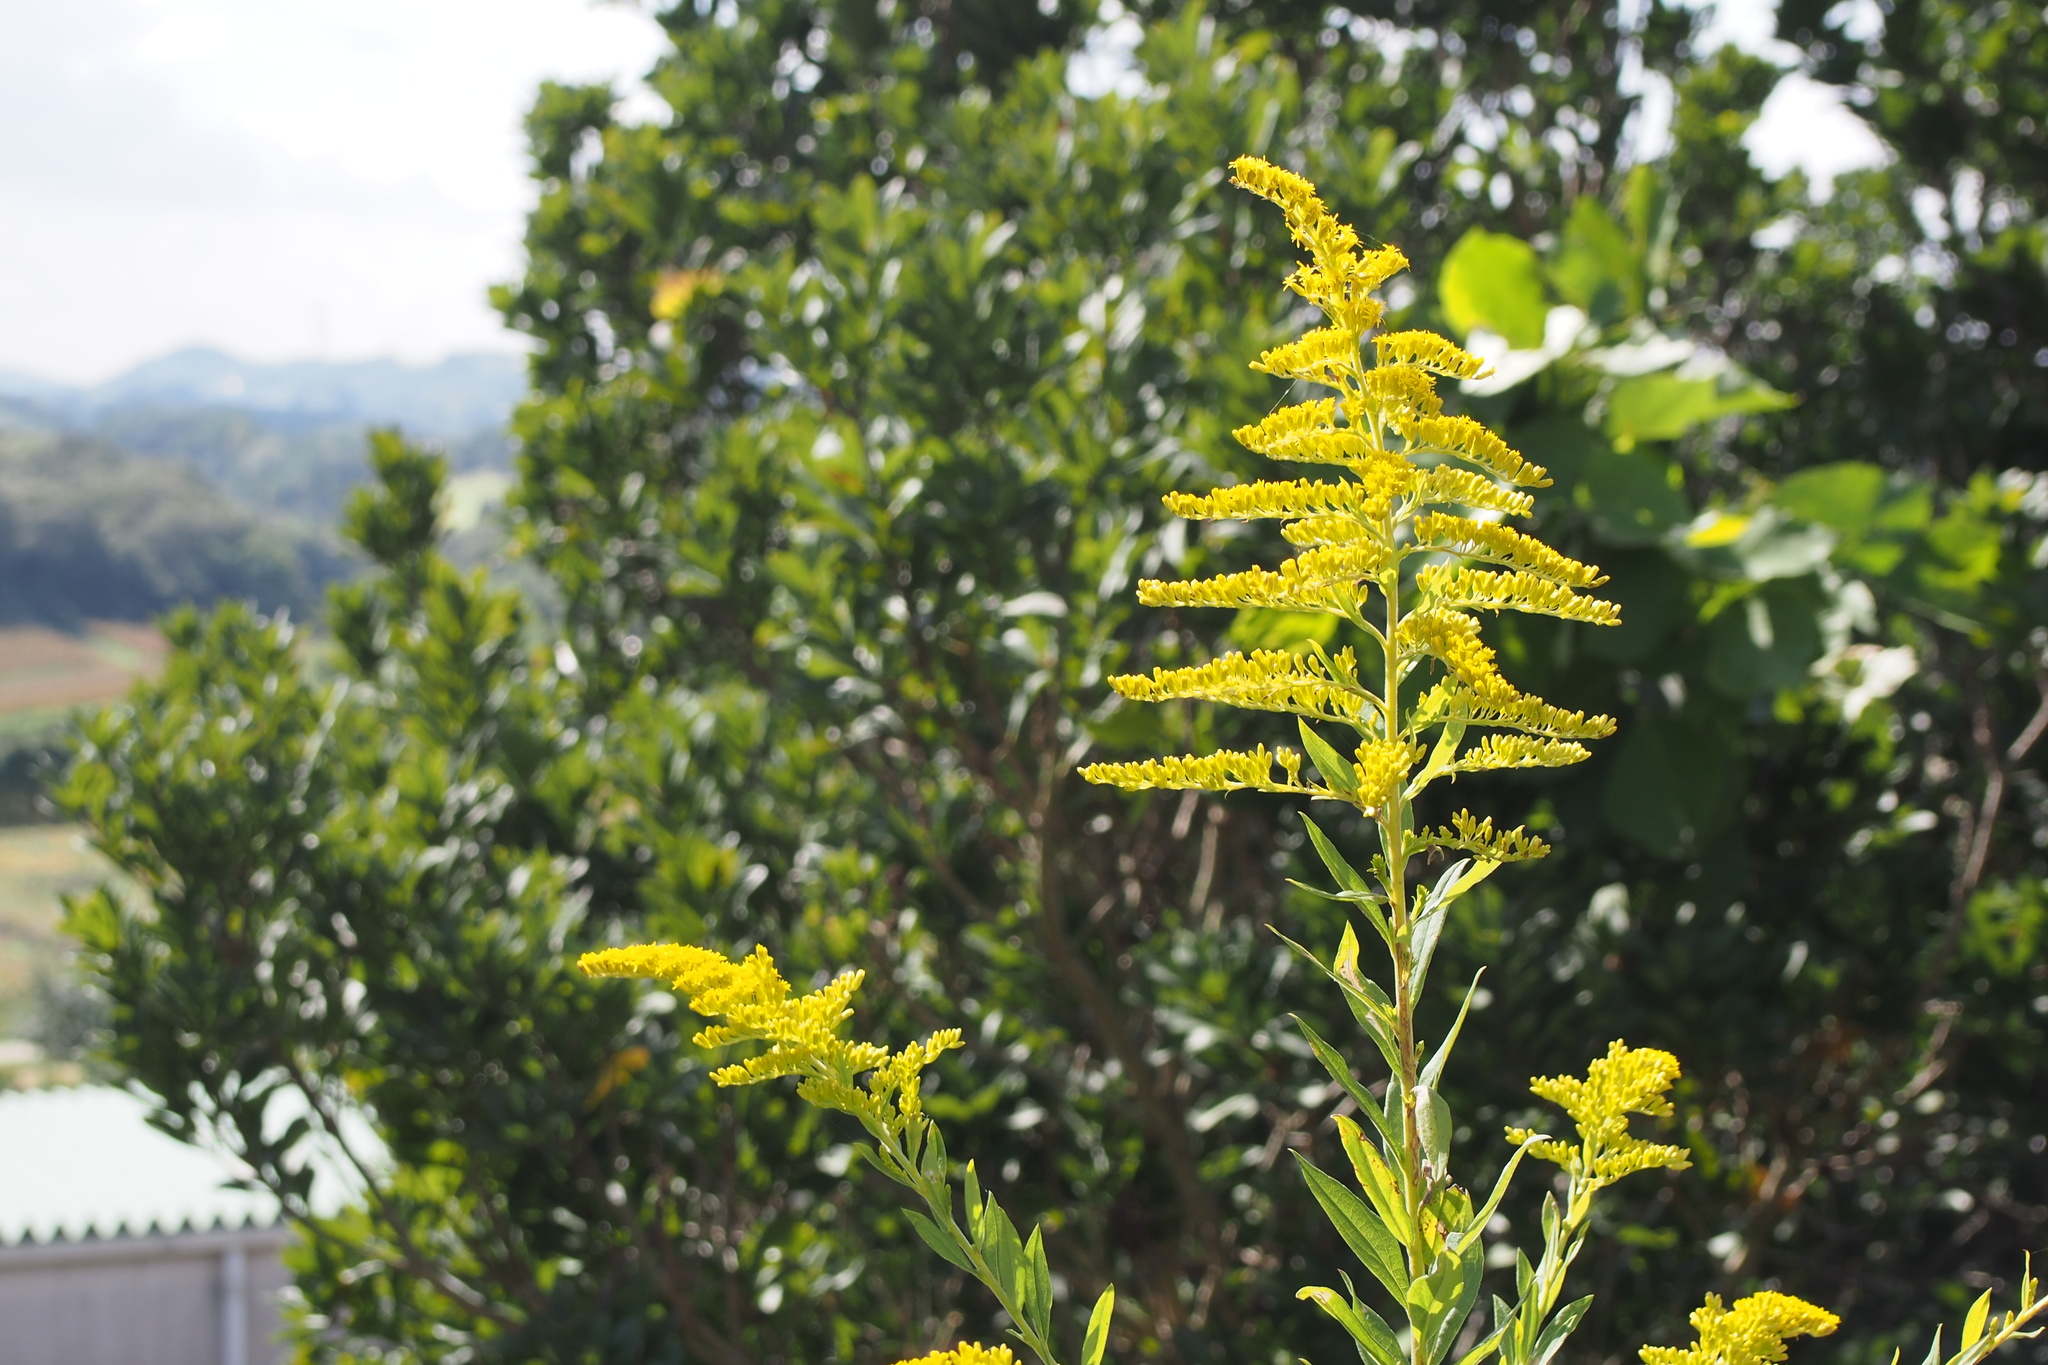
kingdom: Plantae
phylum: Tracheophyta
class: Magnoliopsida
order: Asterales
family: Asteraceae
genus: Solidago
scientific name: Solidago altissima
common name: Late goldenrod
